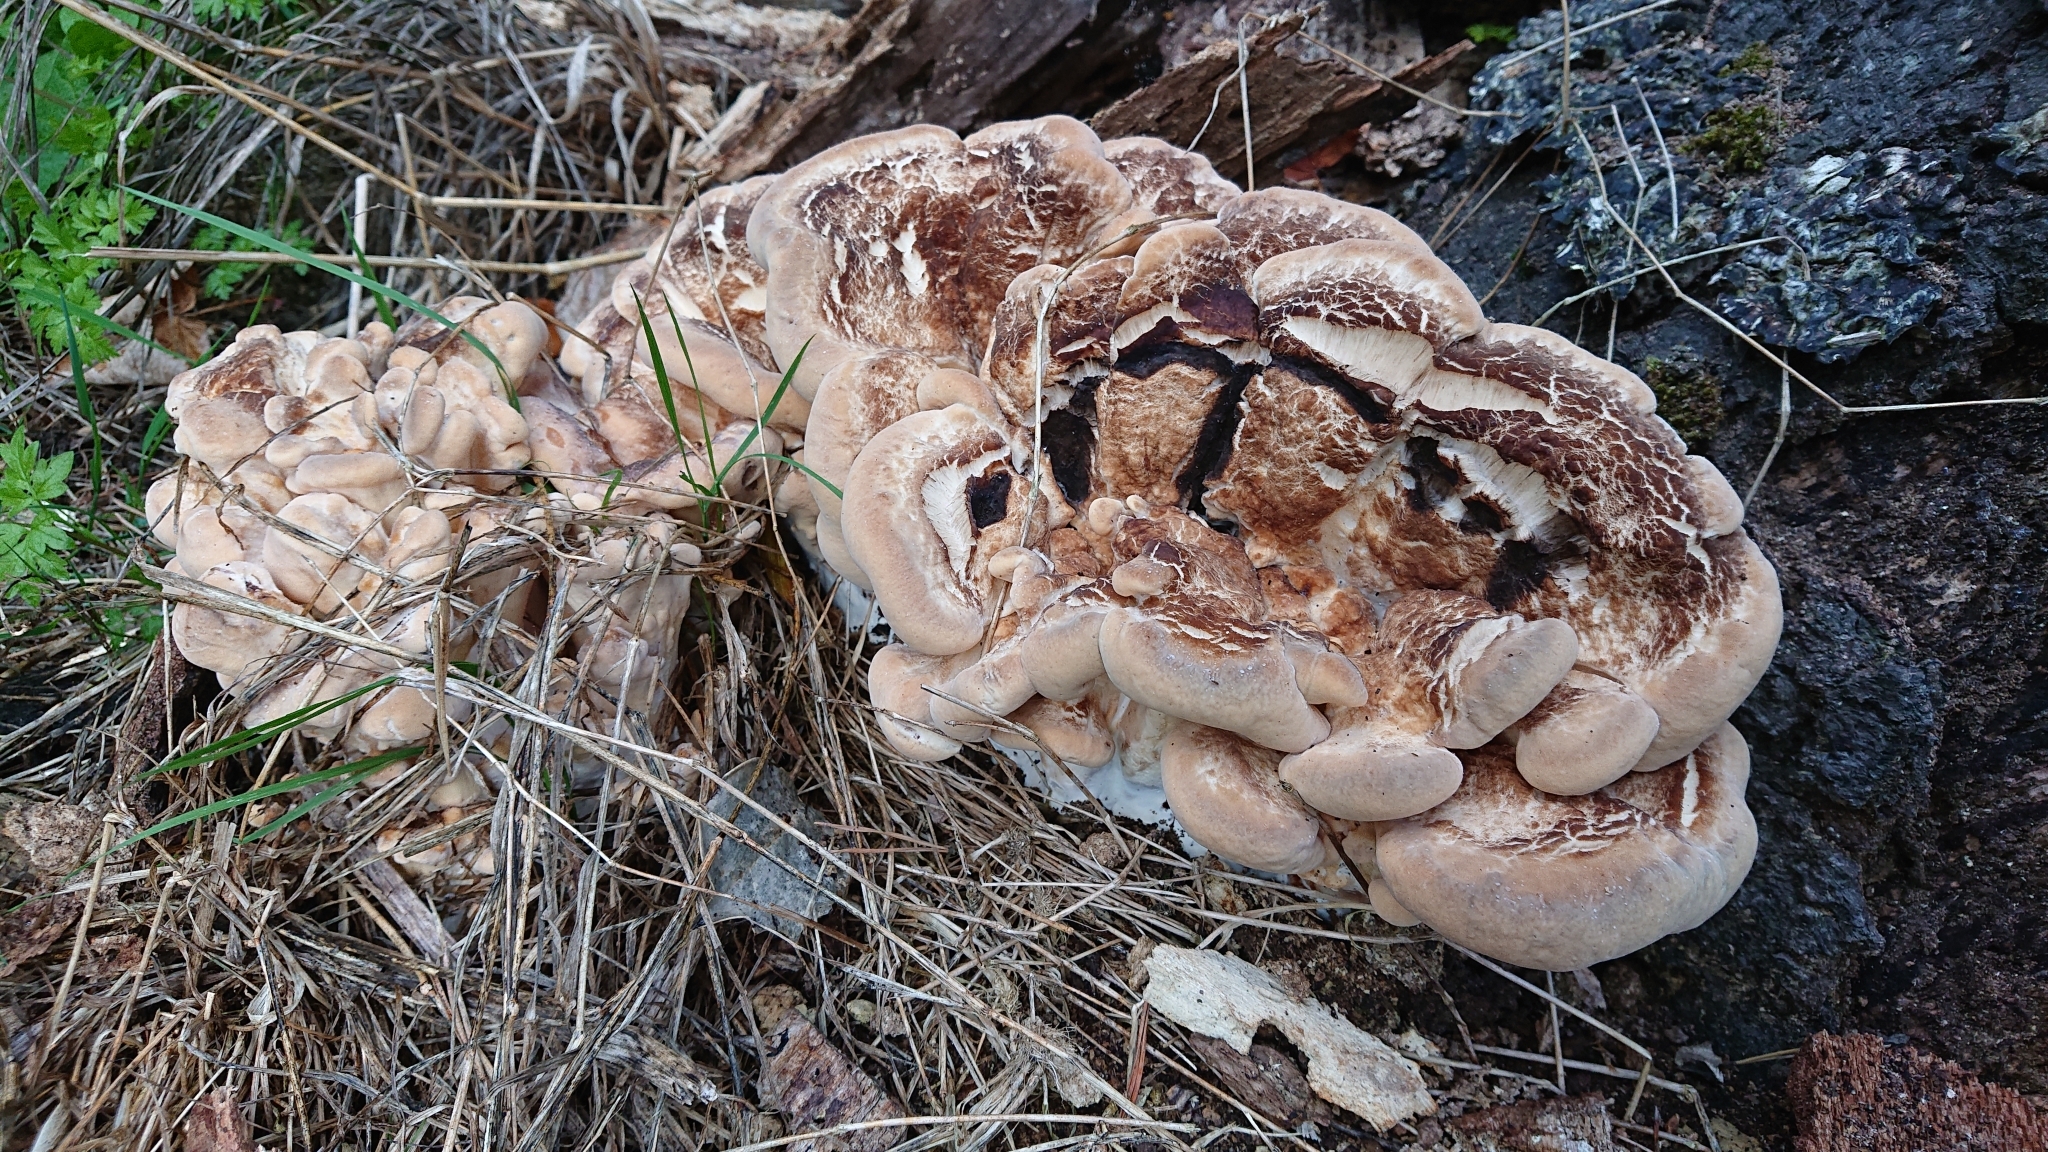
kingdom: Fungi
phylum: Basidiomycota
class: Agaricomycetes
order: Polyporales
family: Meripilaceae
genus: Meripilus
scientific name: Meripilus giganteus
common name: Giant polypore
